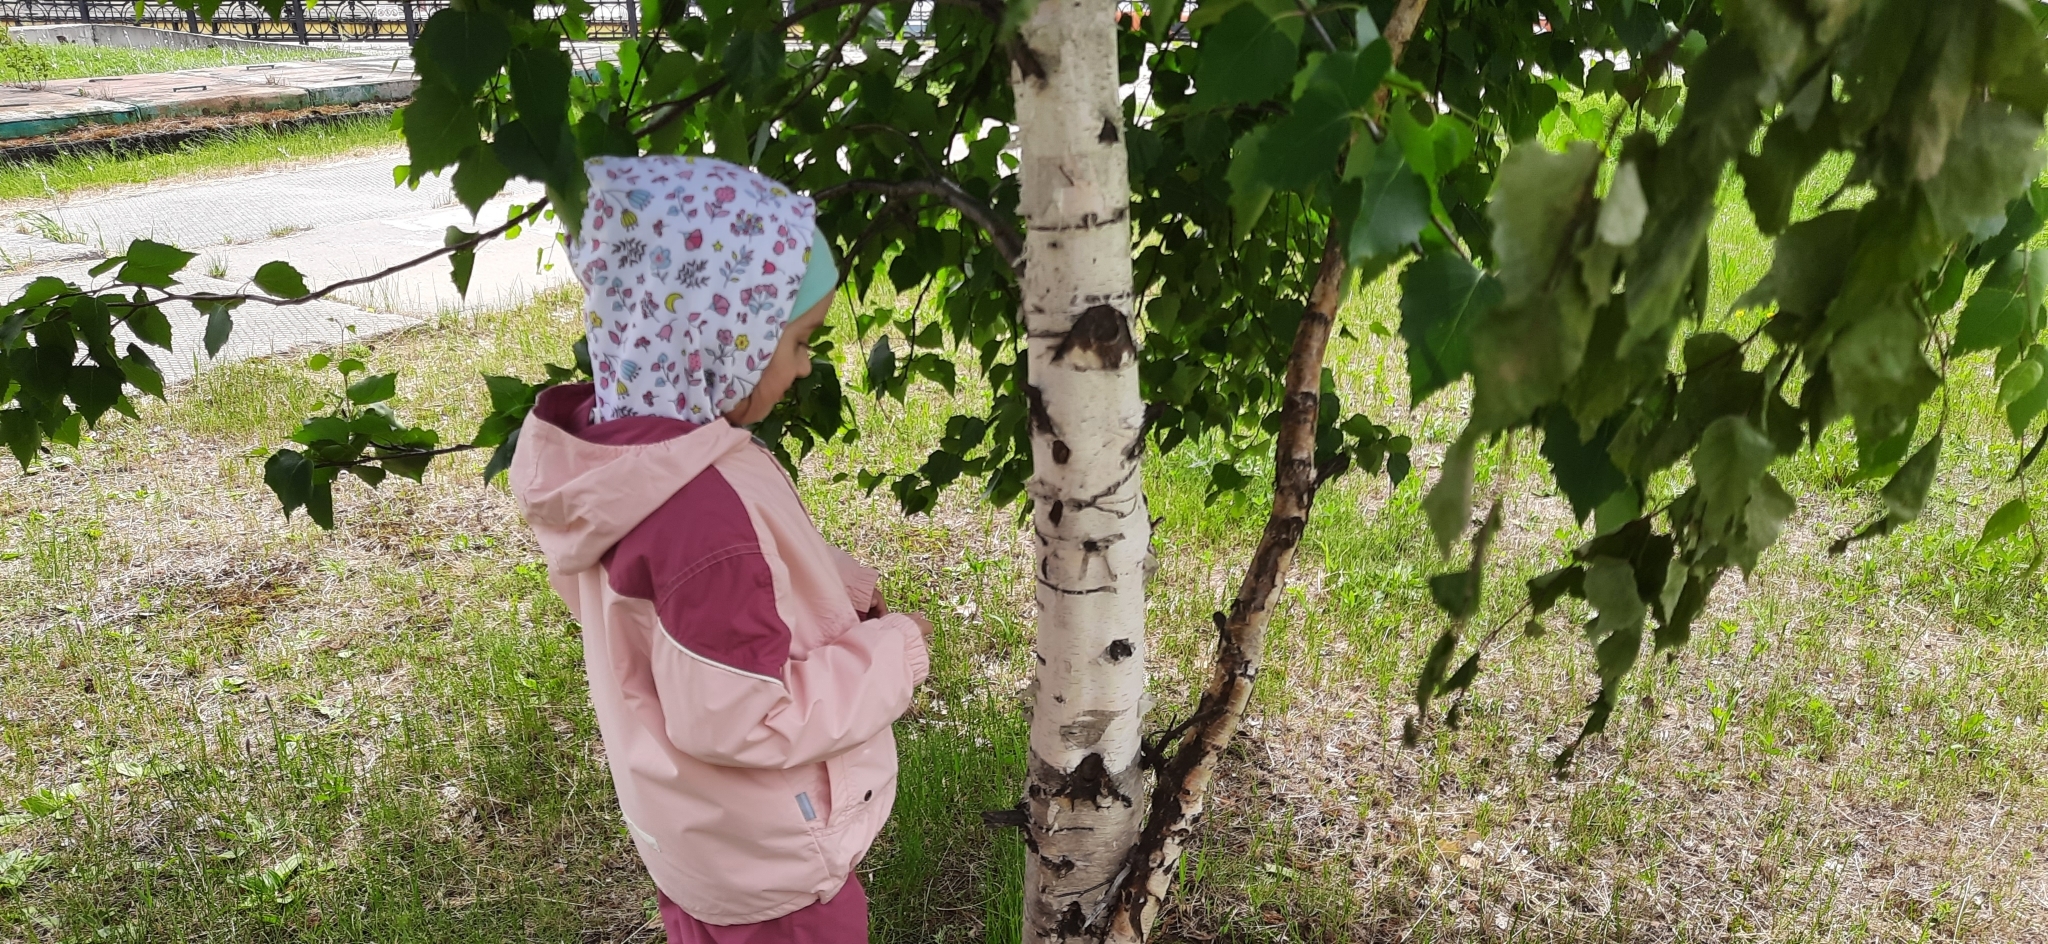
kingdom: Plantae
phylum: Tracheophyta
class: Magnoliopsida
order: Fagales
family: Betulaceae
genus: Betula
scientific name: Betula pendula
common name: Silver birch
